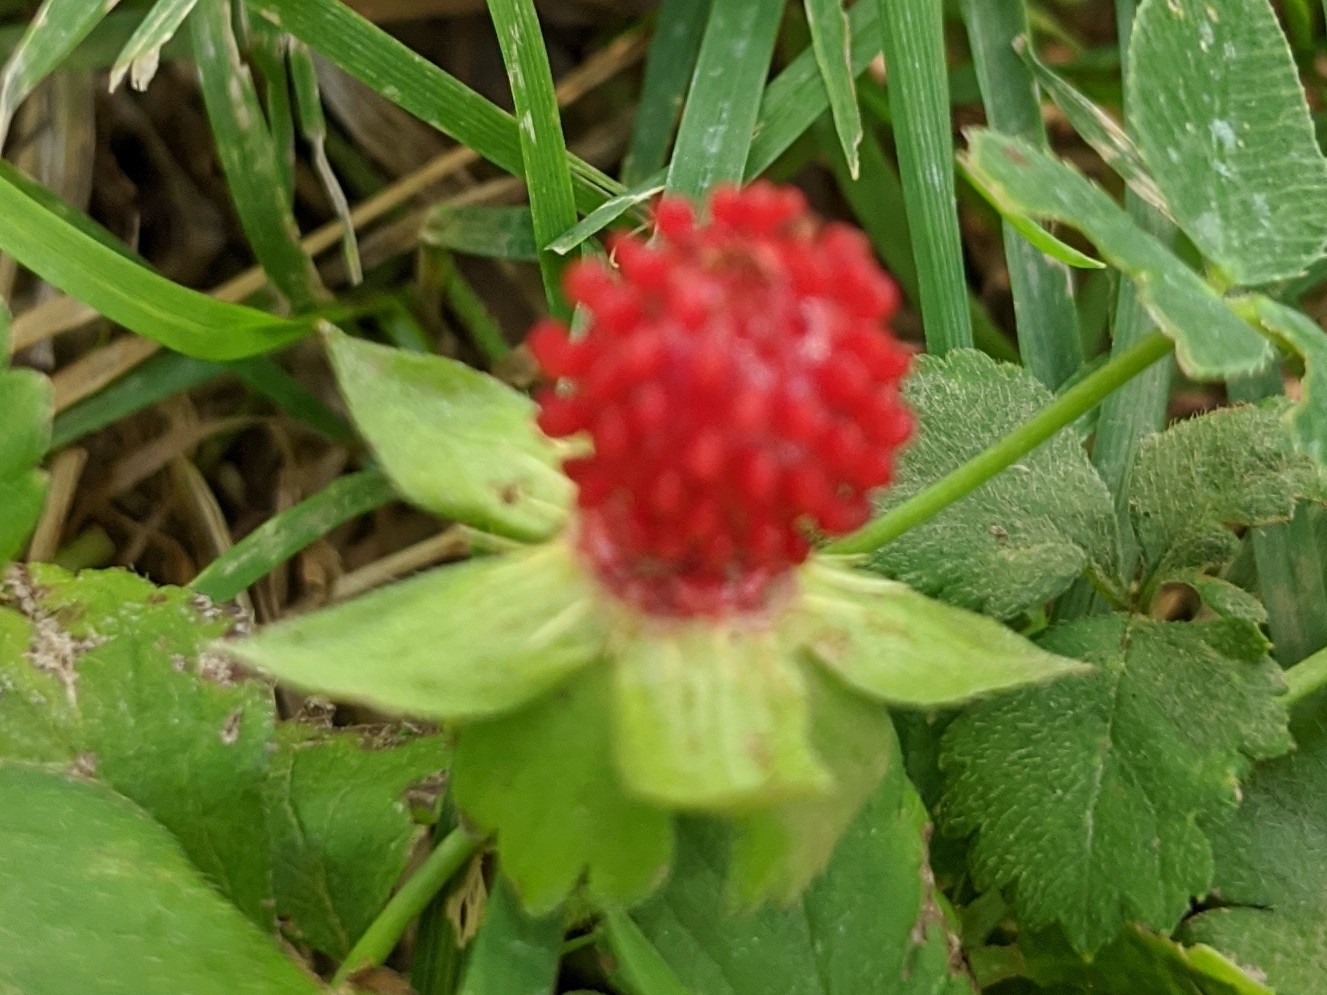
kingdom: Plantae
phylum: Tracheophyta
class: Magnoliopsida
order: Rosales
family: Rosaceae
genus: Potentilla
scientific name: Potentilla indica
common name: Yellow-flowered strawberry
